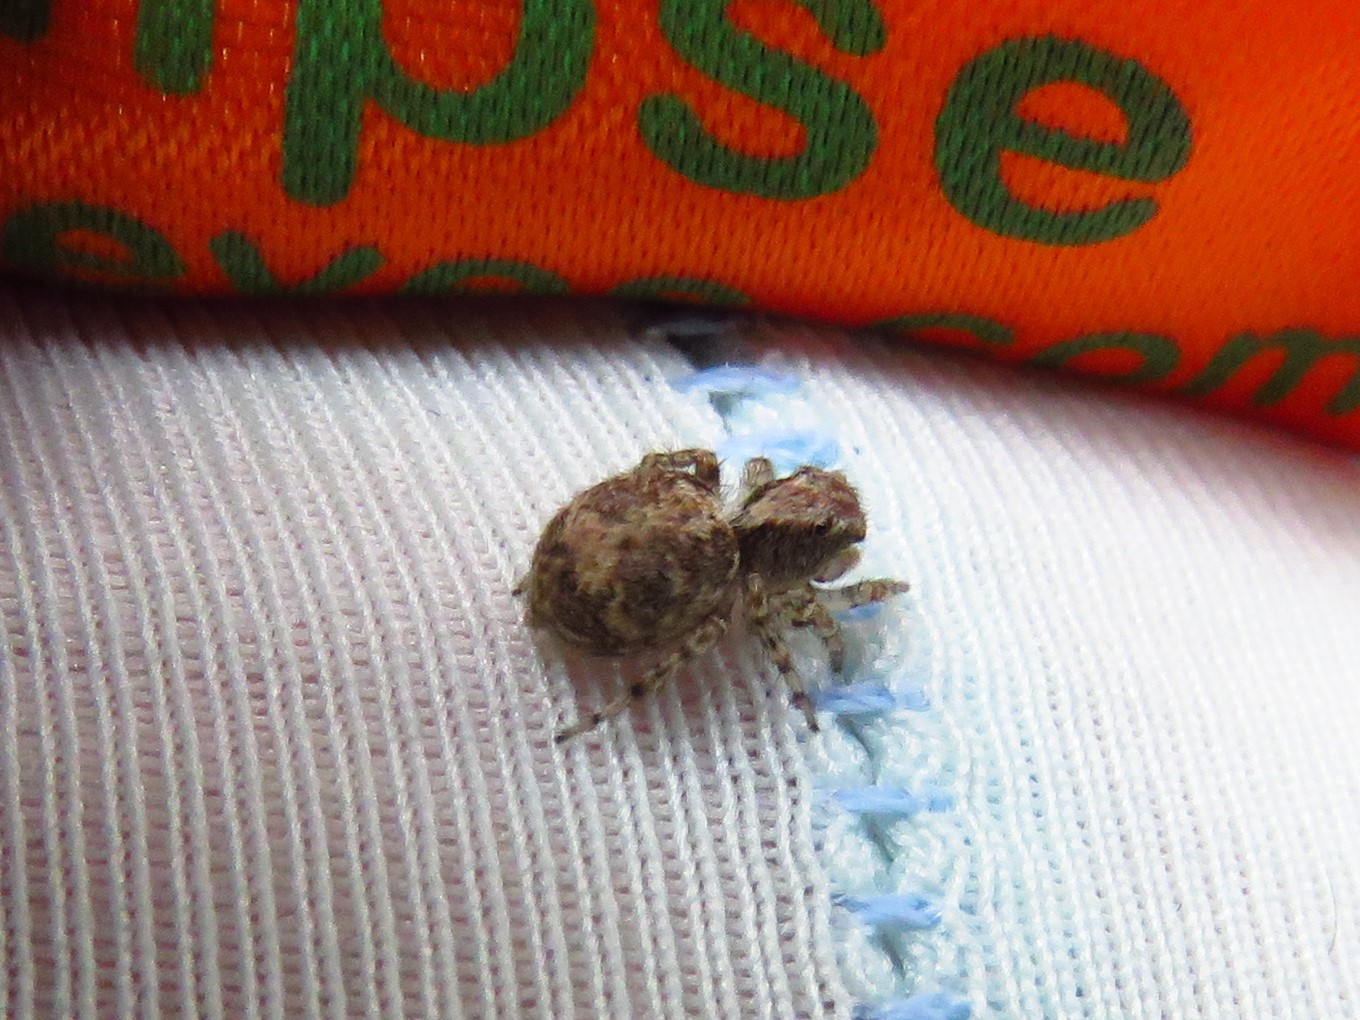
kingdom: Animalia
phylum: Arthropoda
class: Arachnida
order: Araneae
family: Salticidae
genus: Naphrys
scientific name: Naphrys pulex
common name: Flea jumping spider
